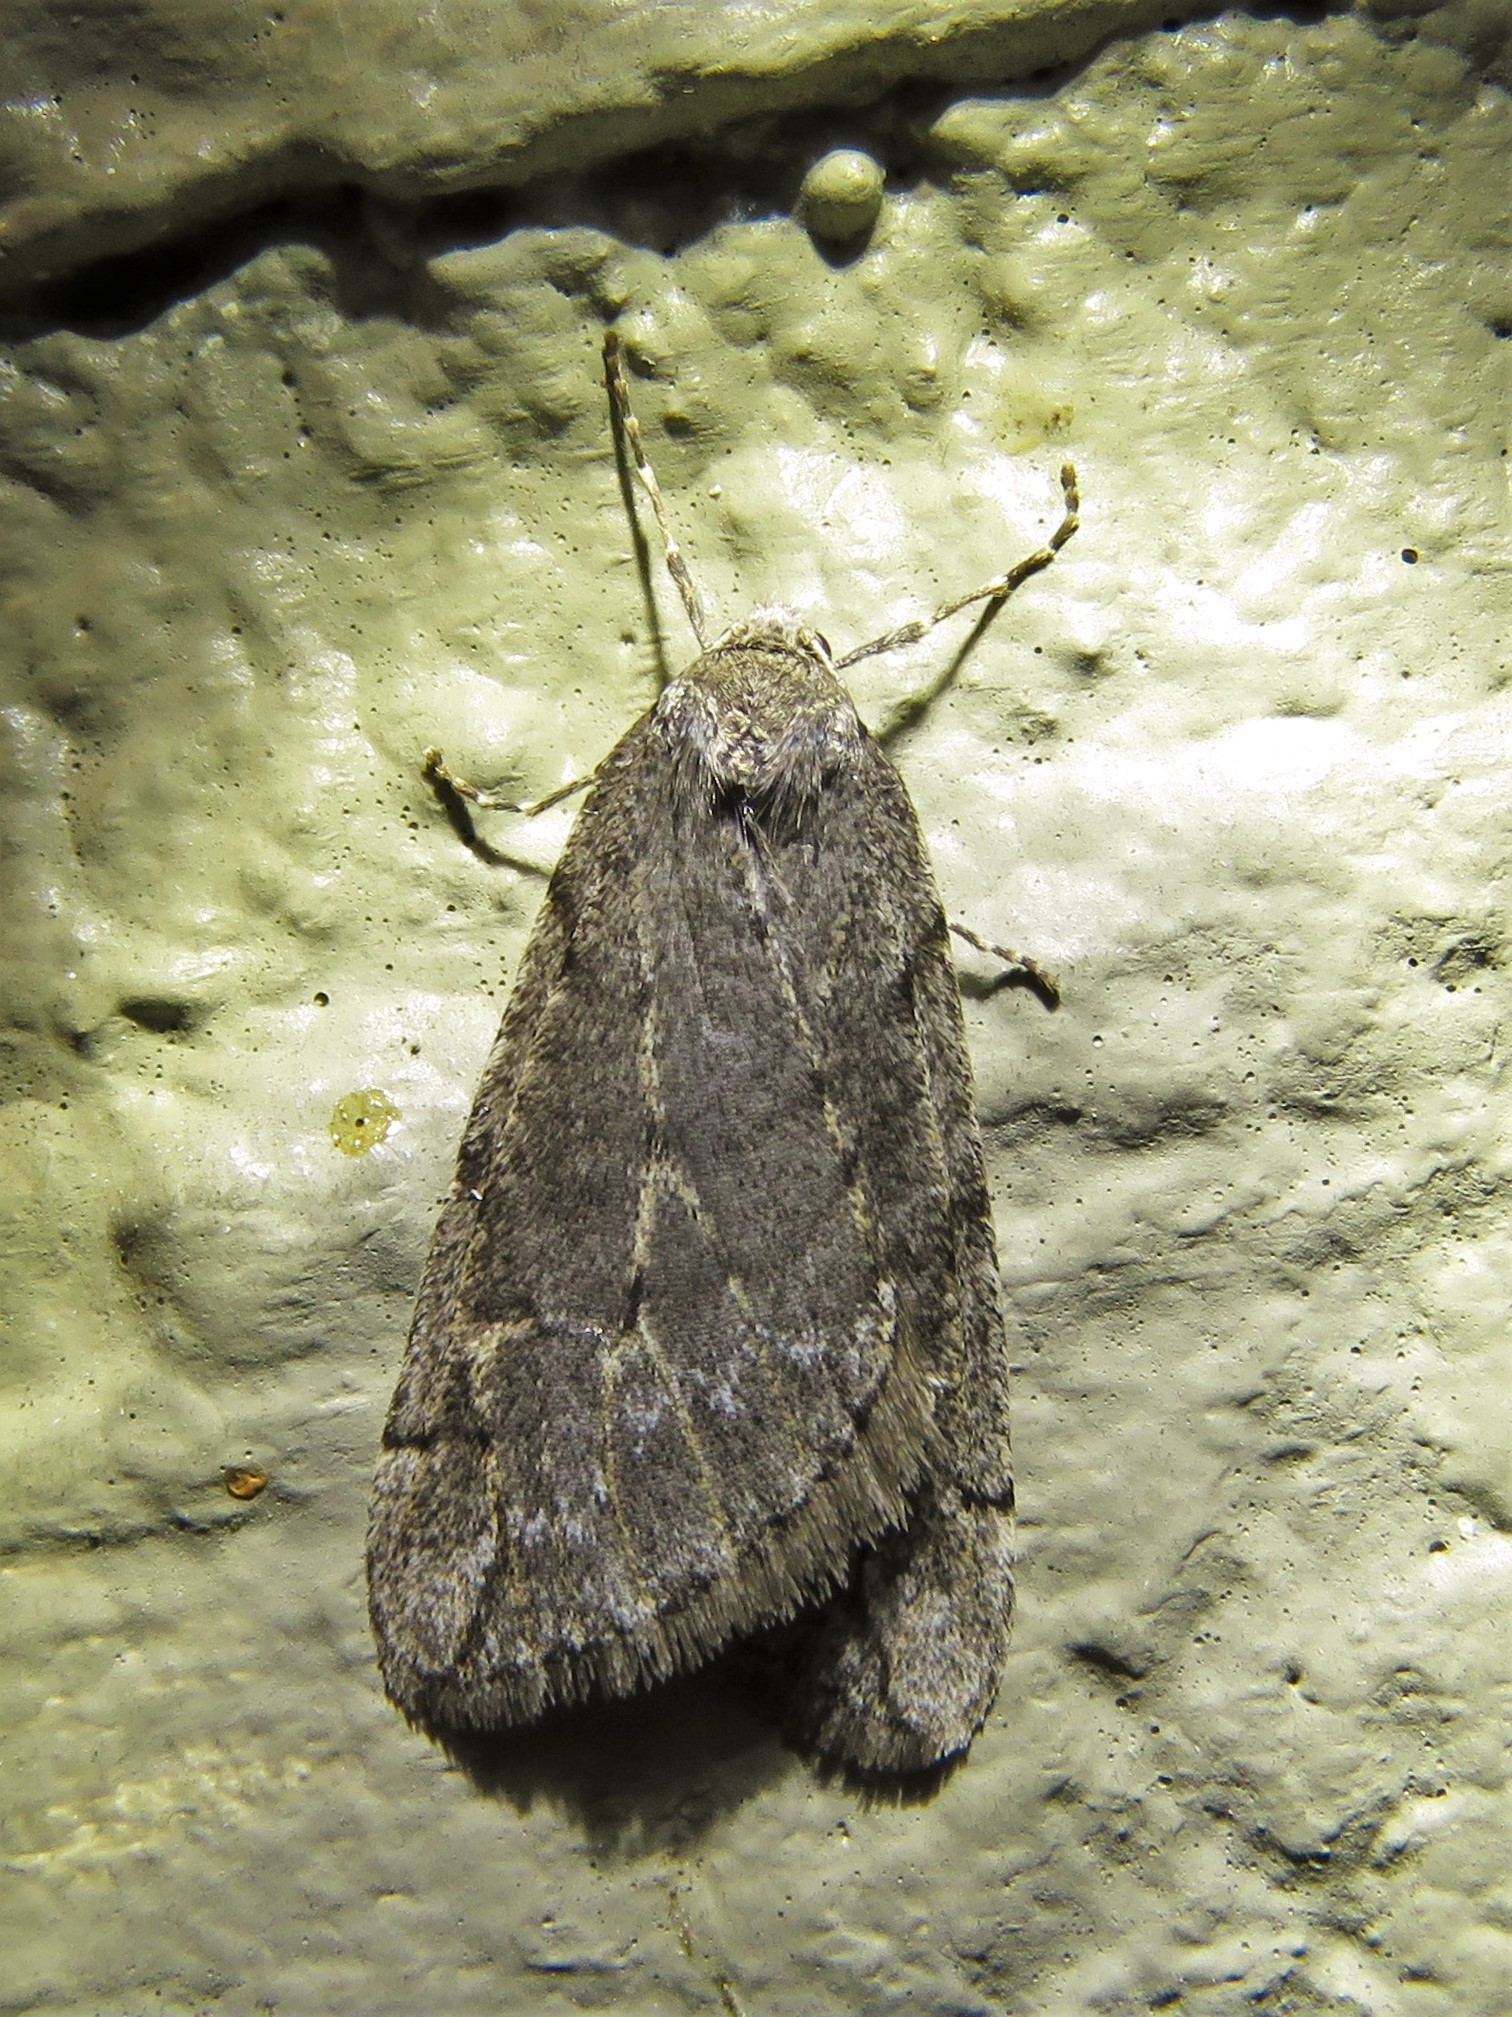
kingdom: Animalia
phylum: Arthropoda
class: Insecta
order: Lepidoptera
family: Geometridae
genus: Paleacrita
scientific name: Paleacrita vernata
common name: Spring cankerworm
